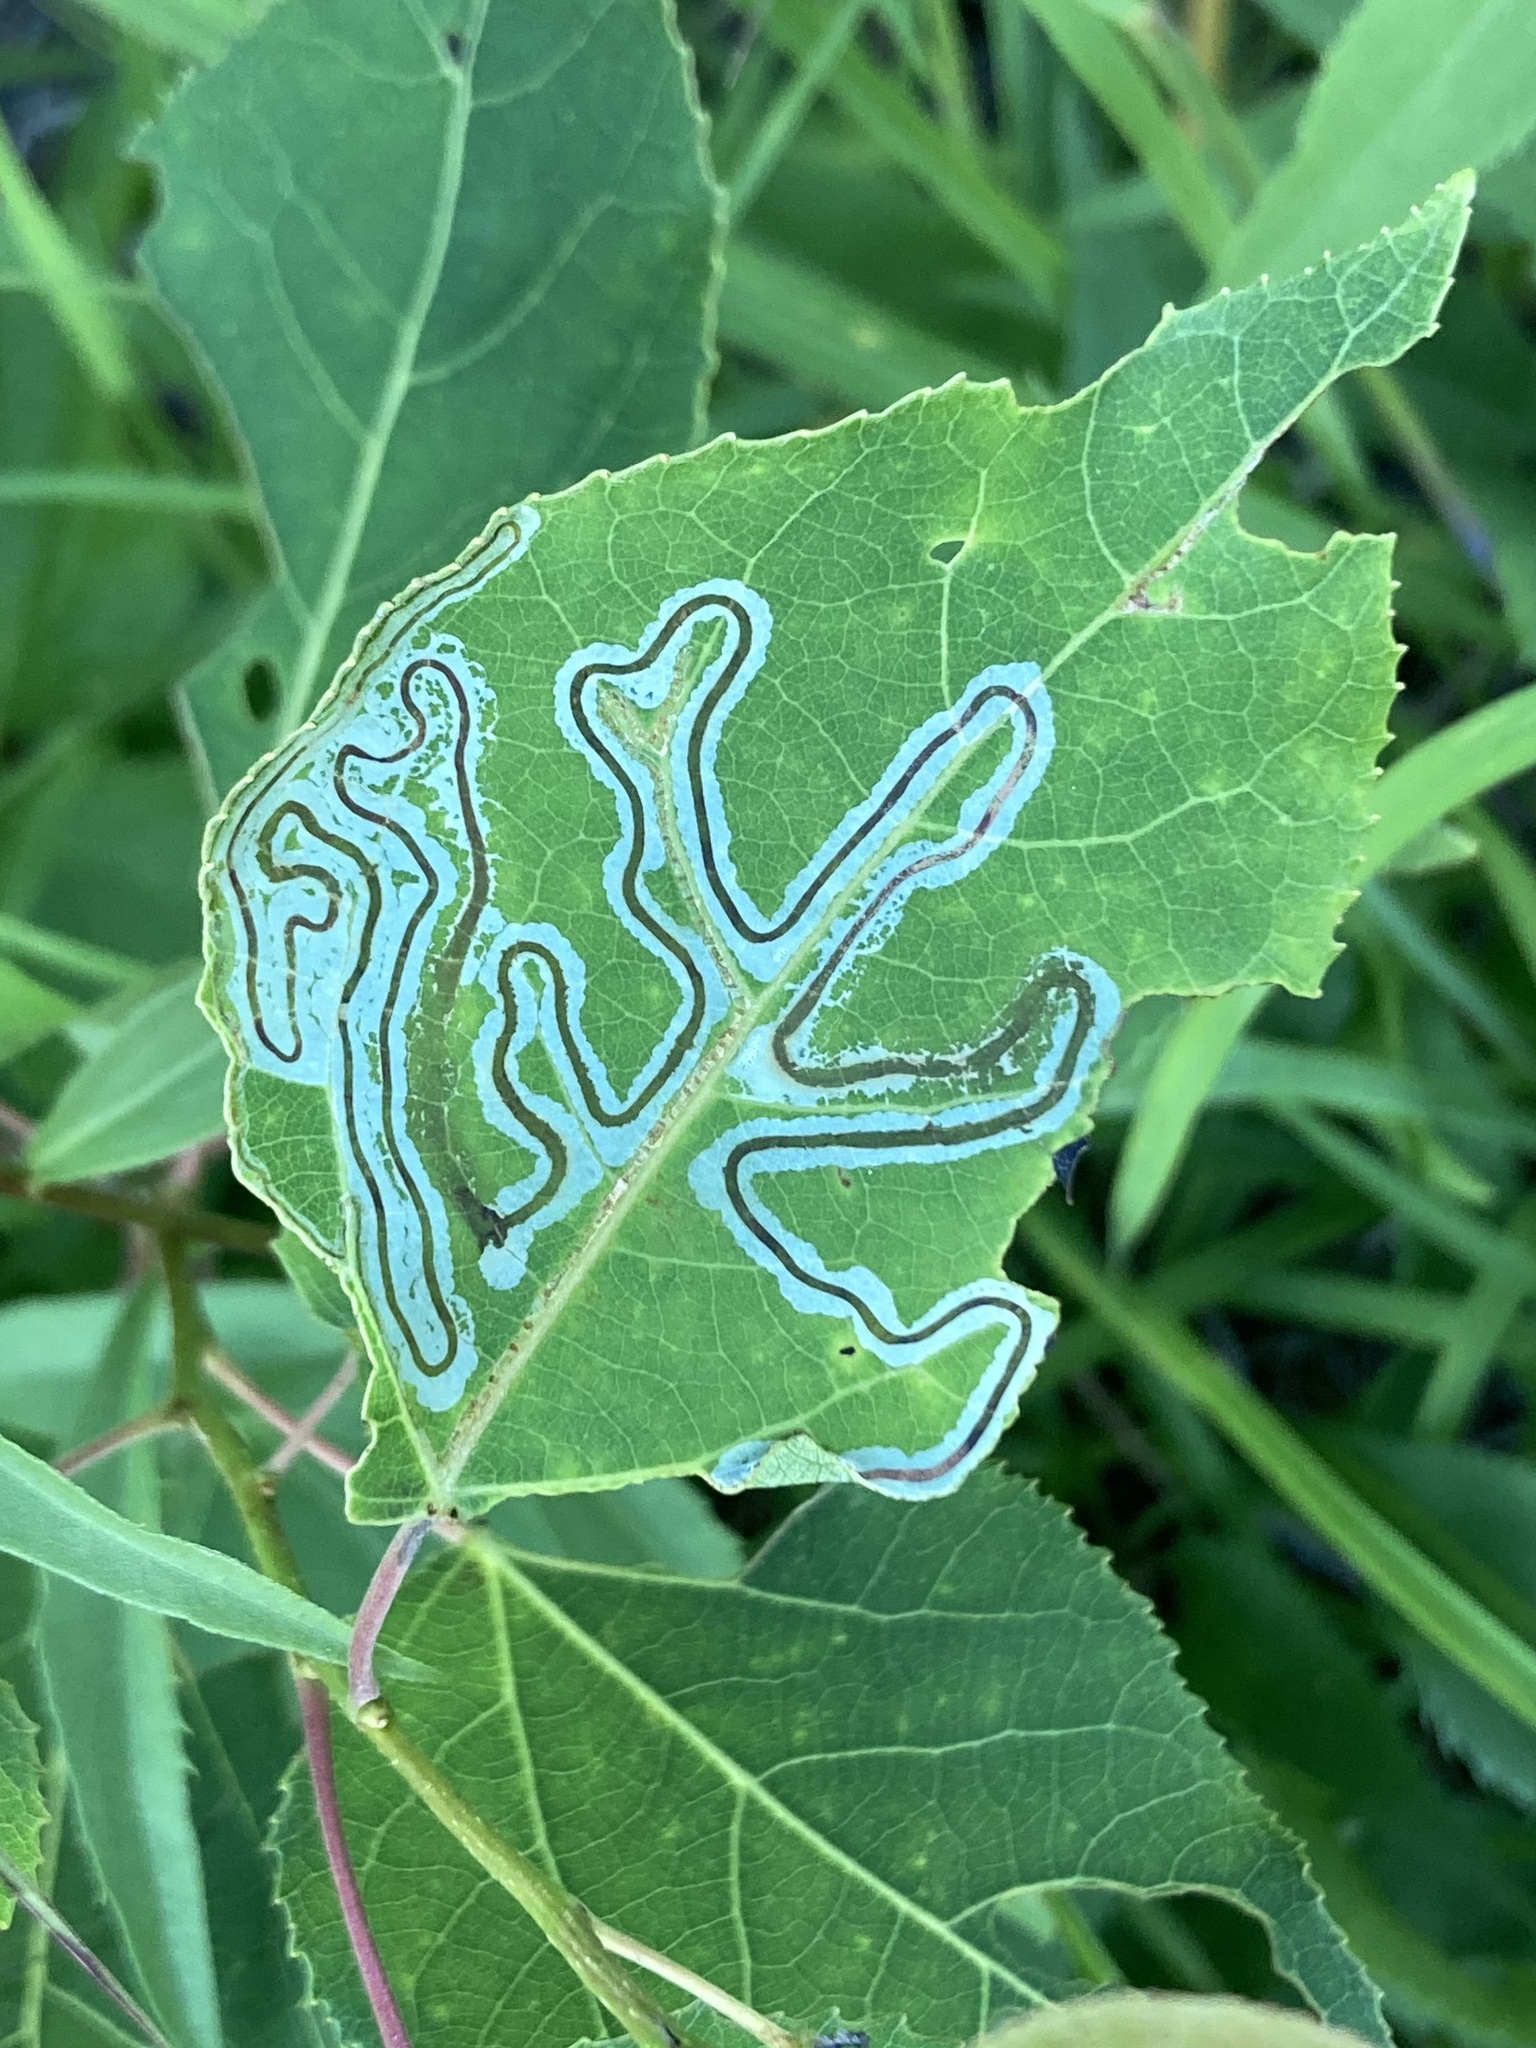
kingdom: Animalia
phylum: Arthropoda
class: Insecta
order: Lepidoptera
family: Gracillariidae
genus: Phyllocnistis
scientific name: Phyllocnistis populiella
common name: Aspen serpentine leafminer moth
